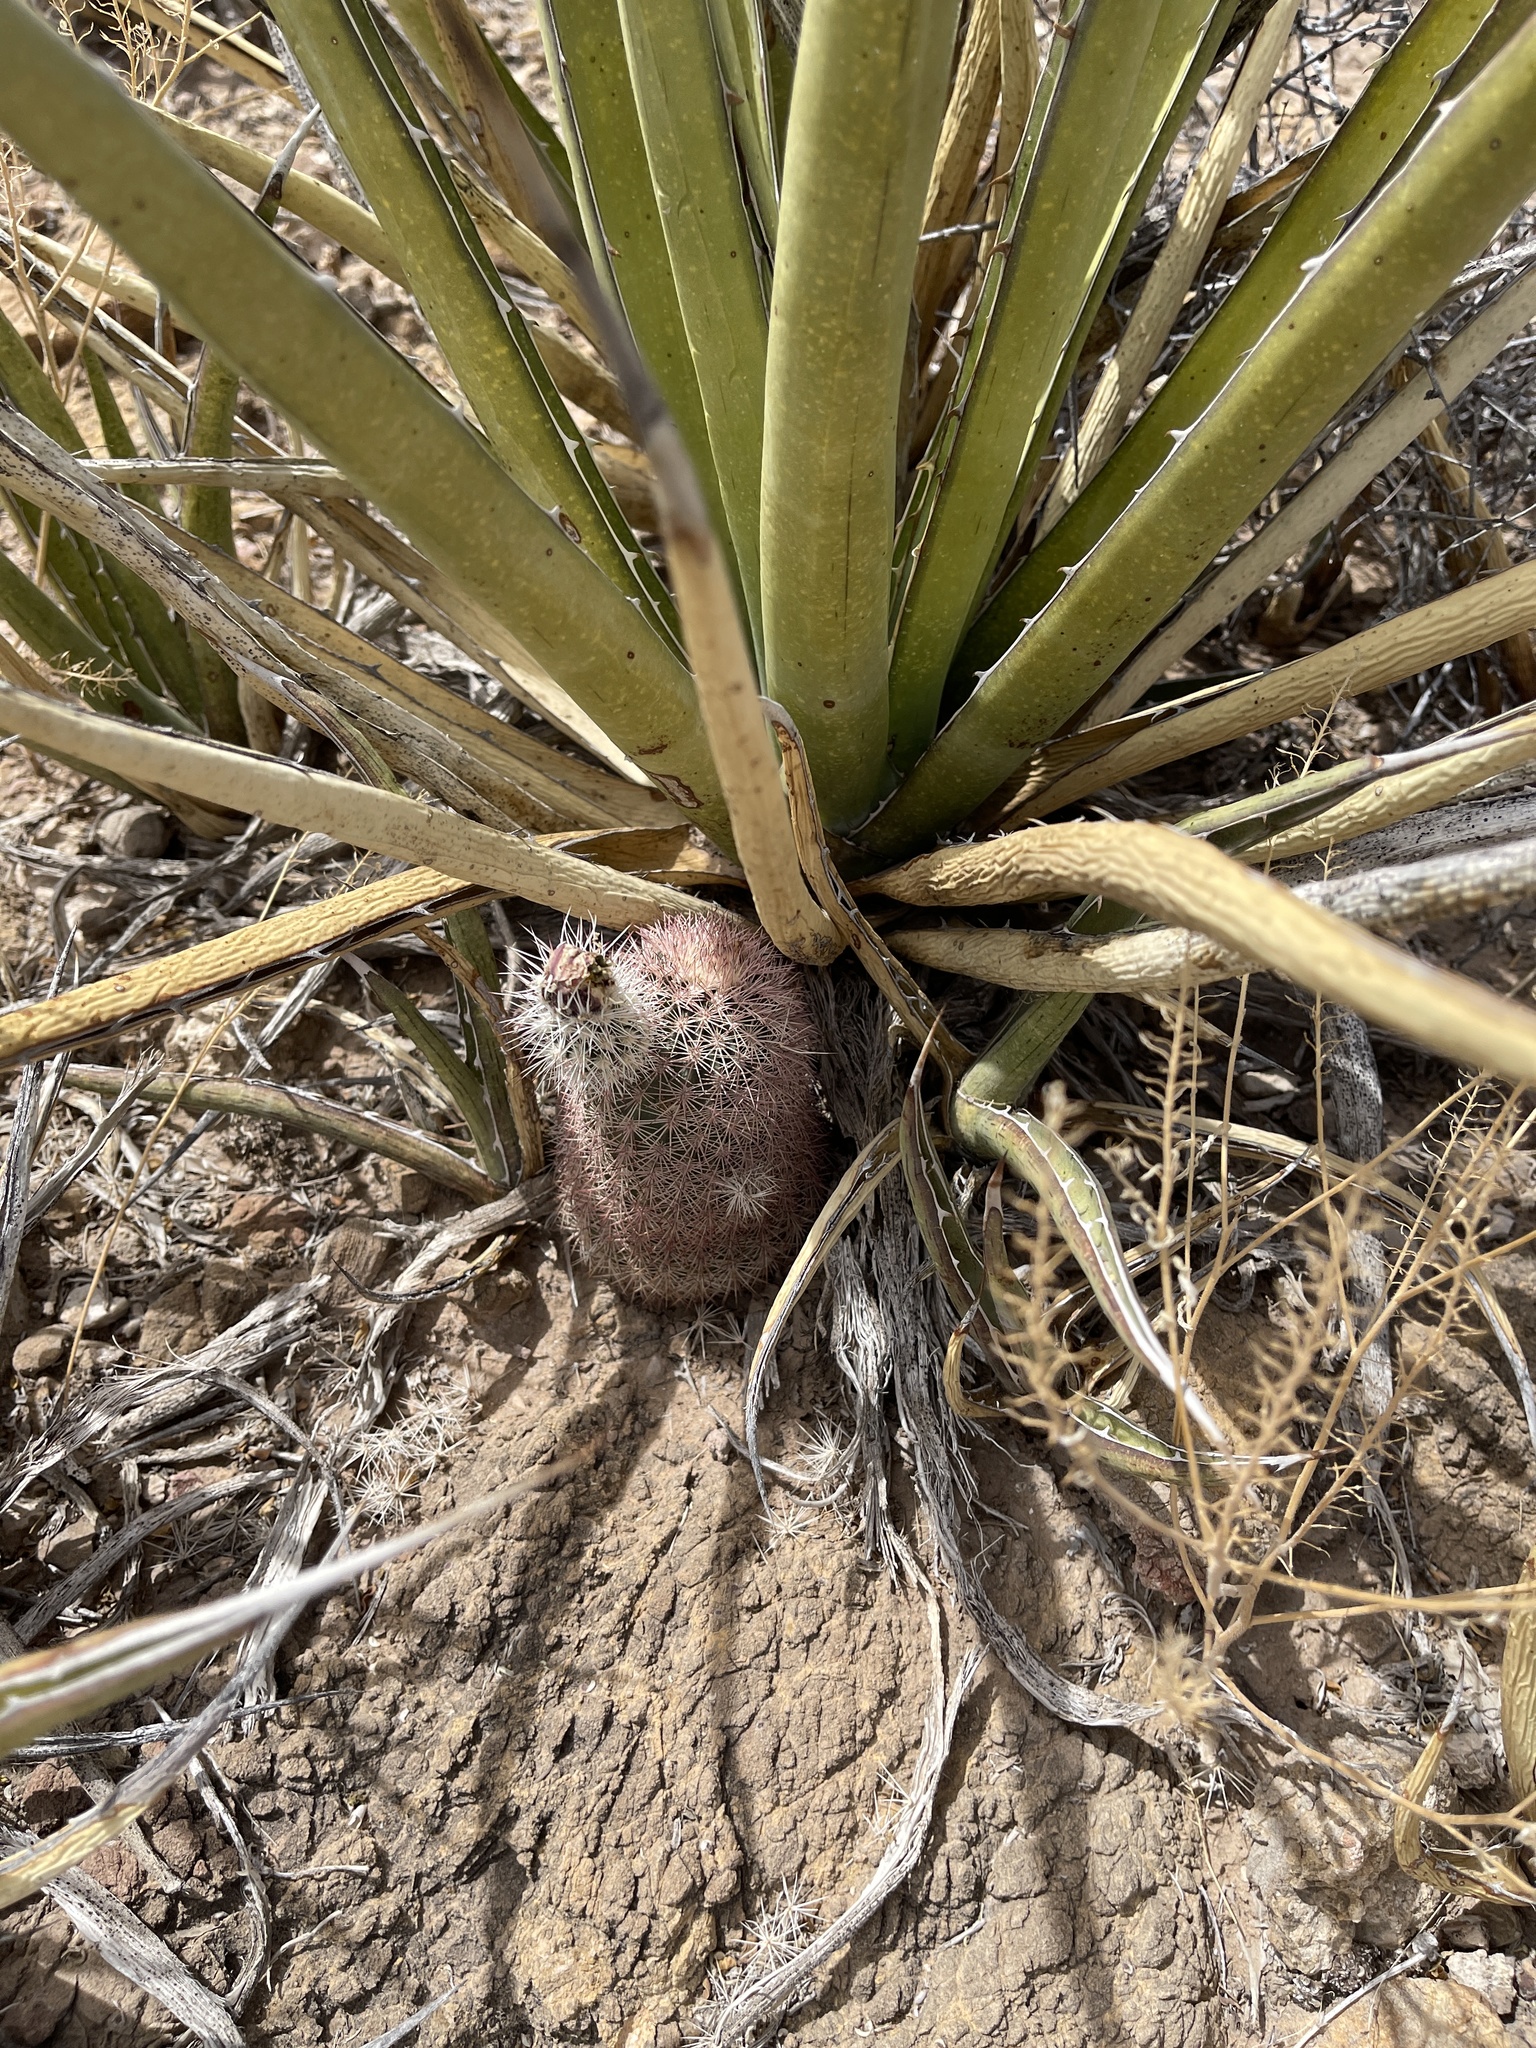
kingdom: Plantae
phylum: Tracheophyta
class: Magnoliopsida
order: Caryophyllales
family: Cactaceae
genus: Echinocereus
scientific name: Echinocereus dasyacanthus
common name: Spiny hedgehog cactus
